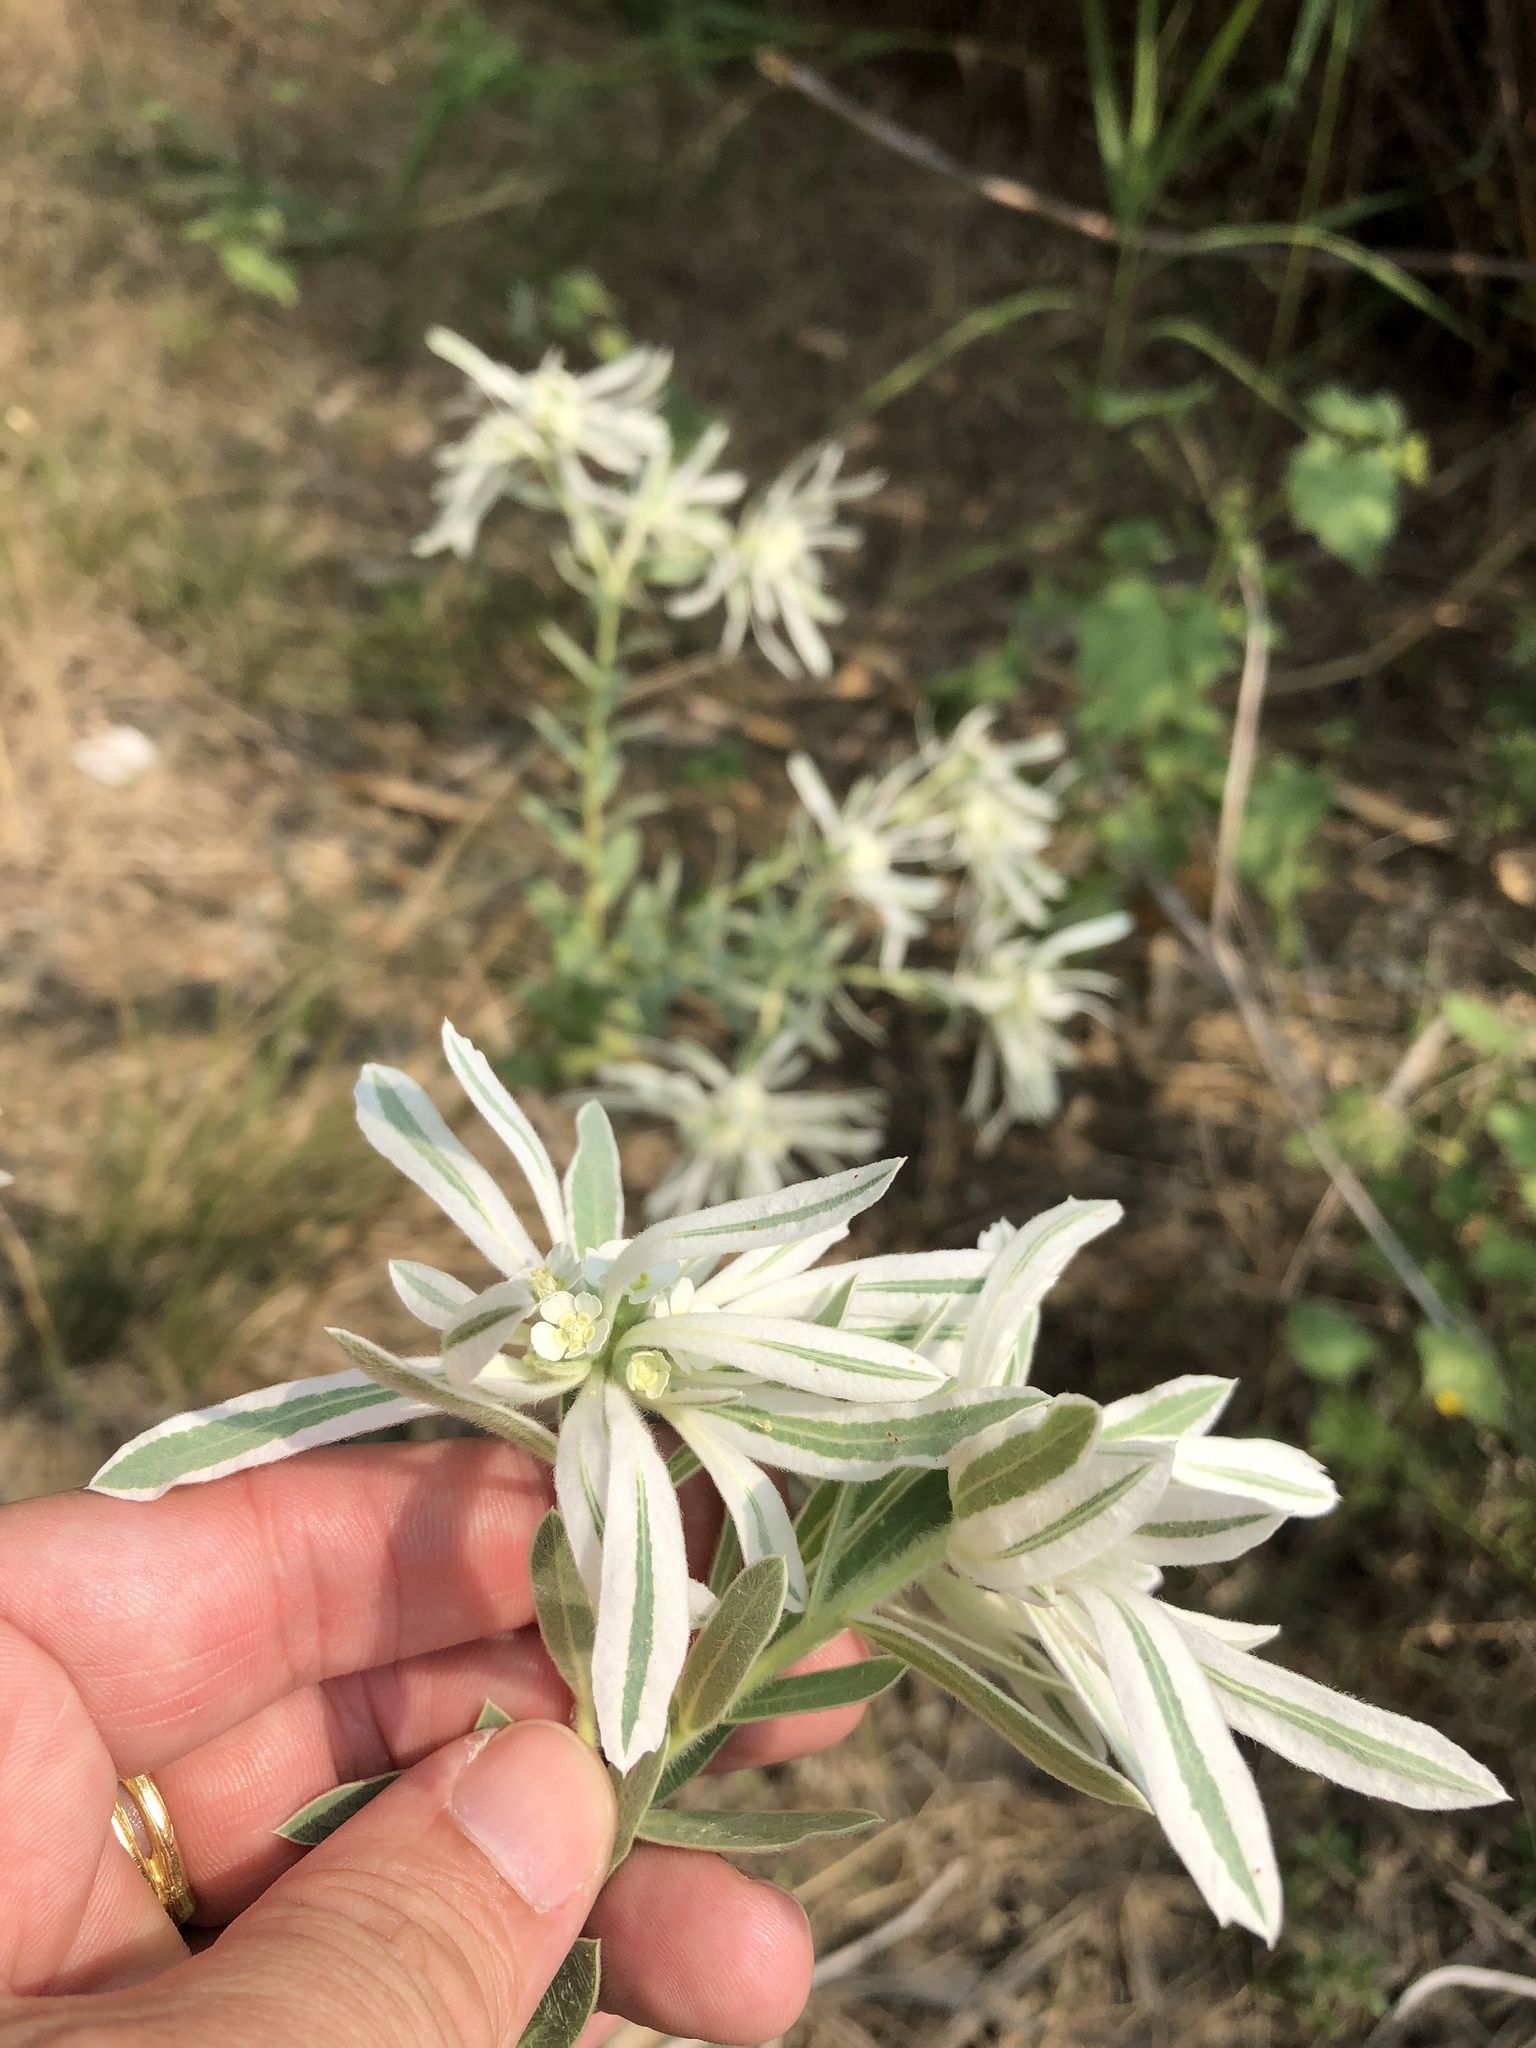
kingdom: Plantae
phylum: Tracheophyta
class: Magnoliopsida
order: Malpighiales
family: Euphorbiaceae
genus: Euphorbia
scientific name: Euphorbia bicolor
